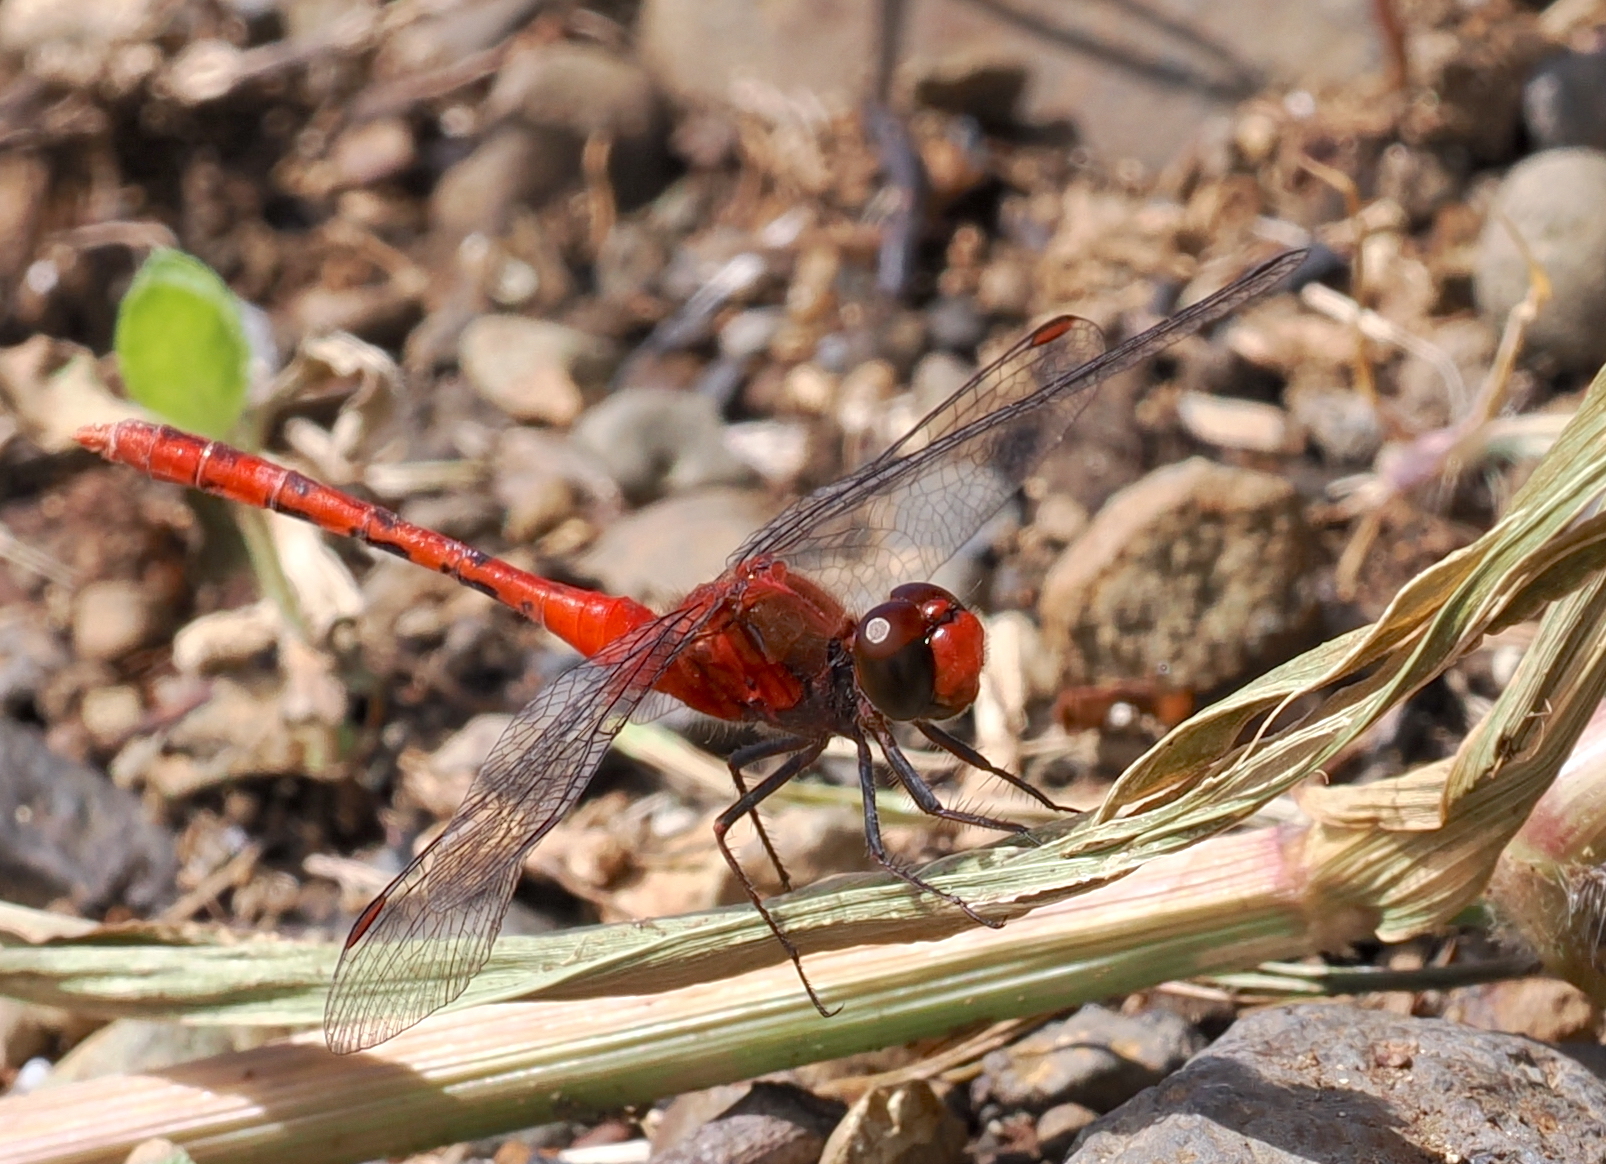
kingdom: Animalia
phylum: Arthropoda
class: Insecta
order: Odonata
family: Libellulidae
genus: Diplacodes
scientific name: Diplacodes bipunctata
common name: Red percher dragonfly
